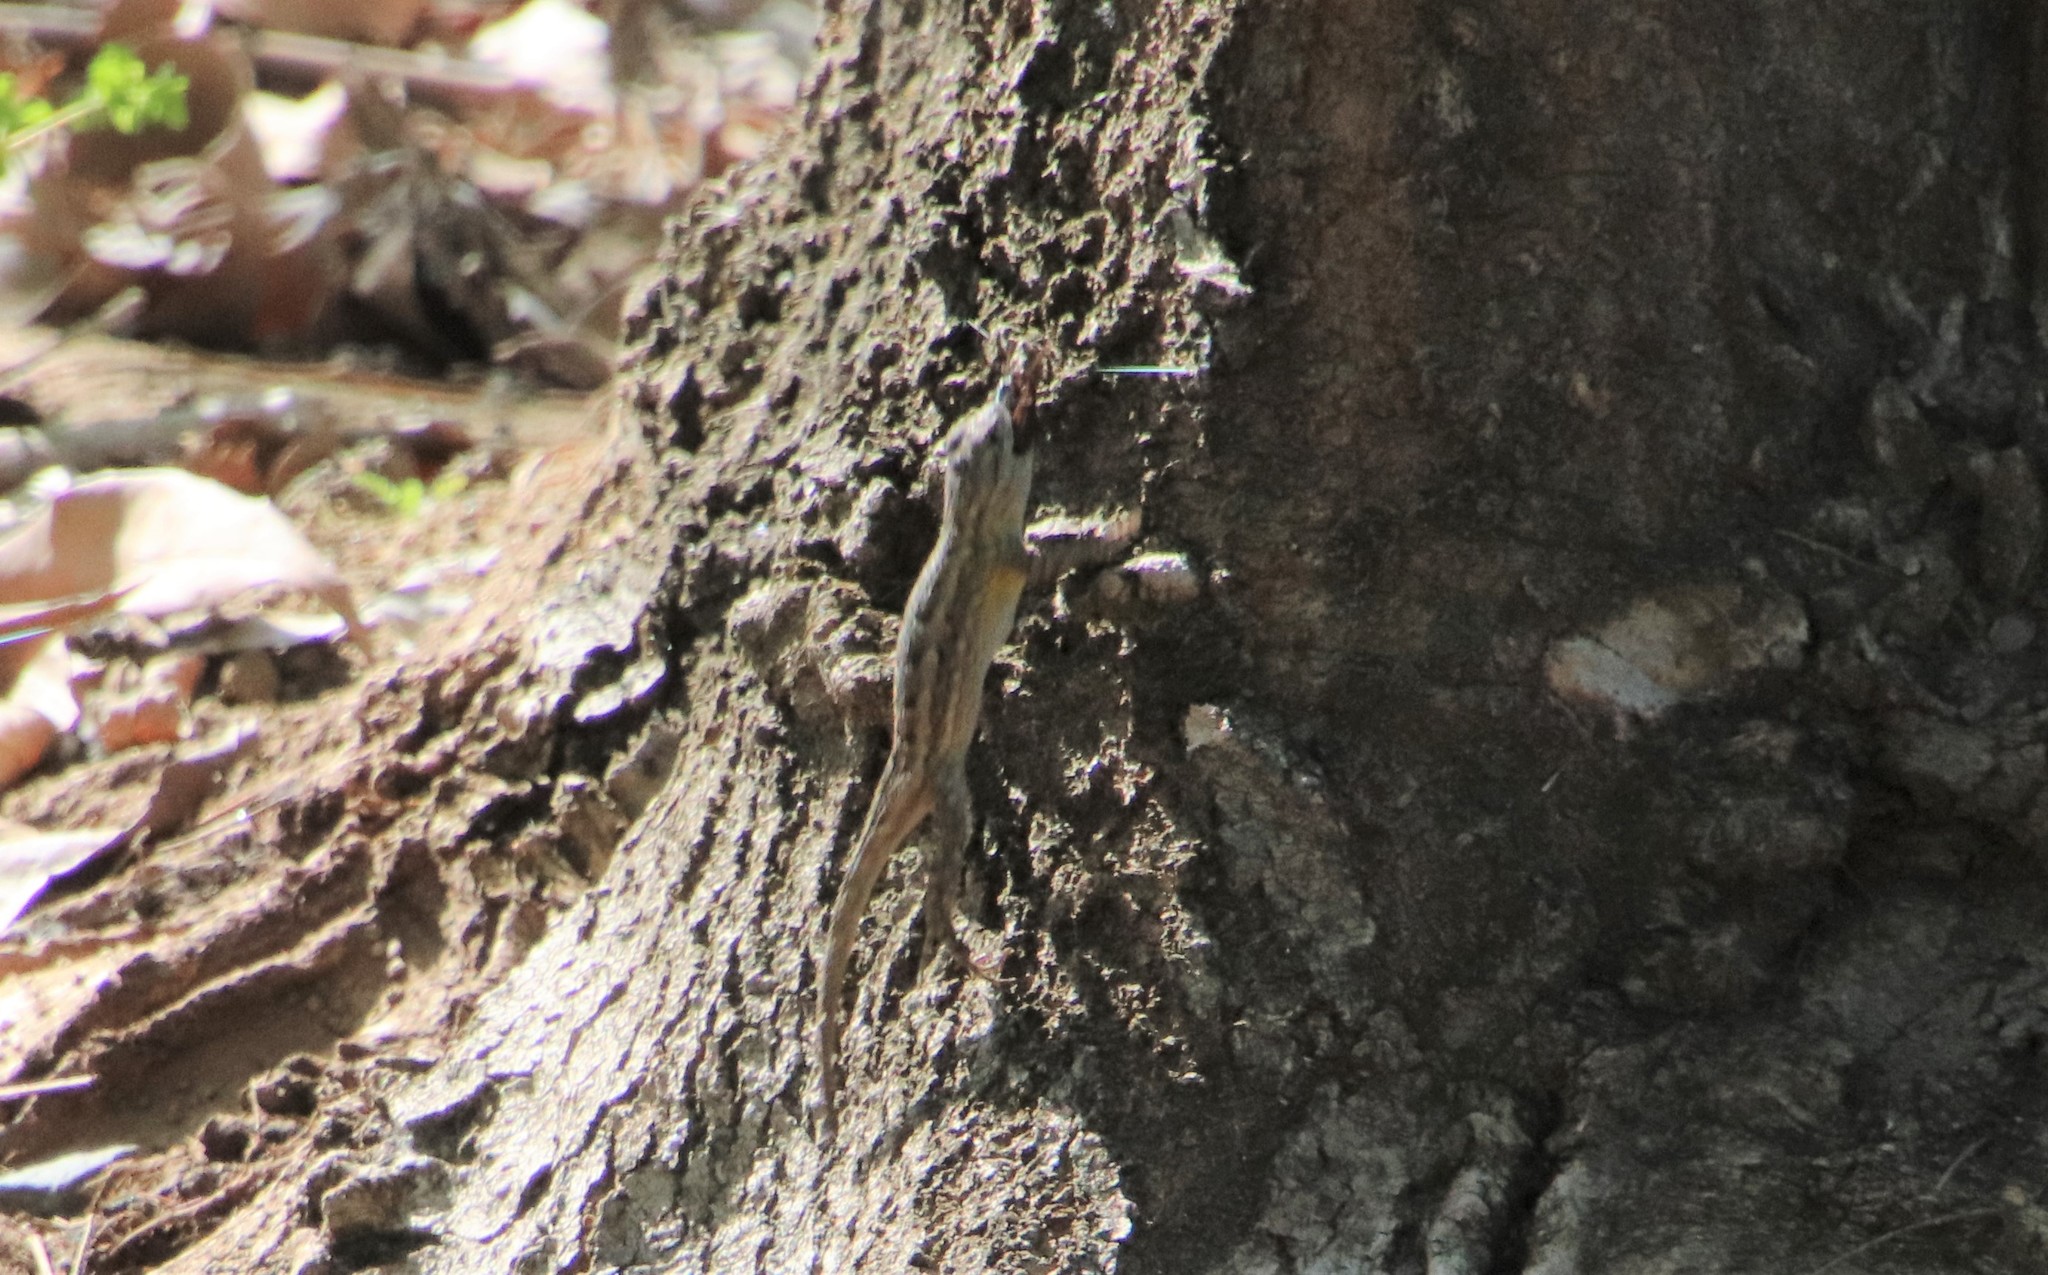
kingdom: Animalia
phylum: Chordata
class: Squamata
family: Phrynosomatidae
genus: Sceloporus
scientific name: Sceloporus occidentalis
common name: Western fence lizard
